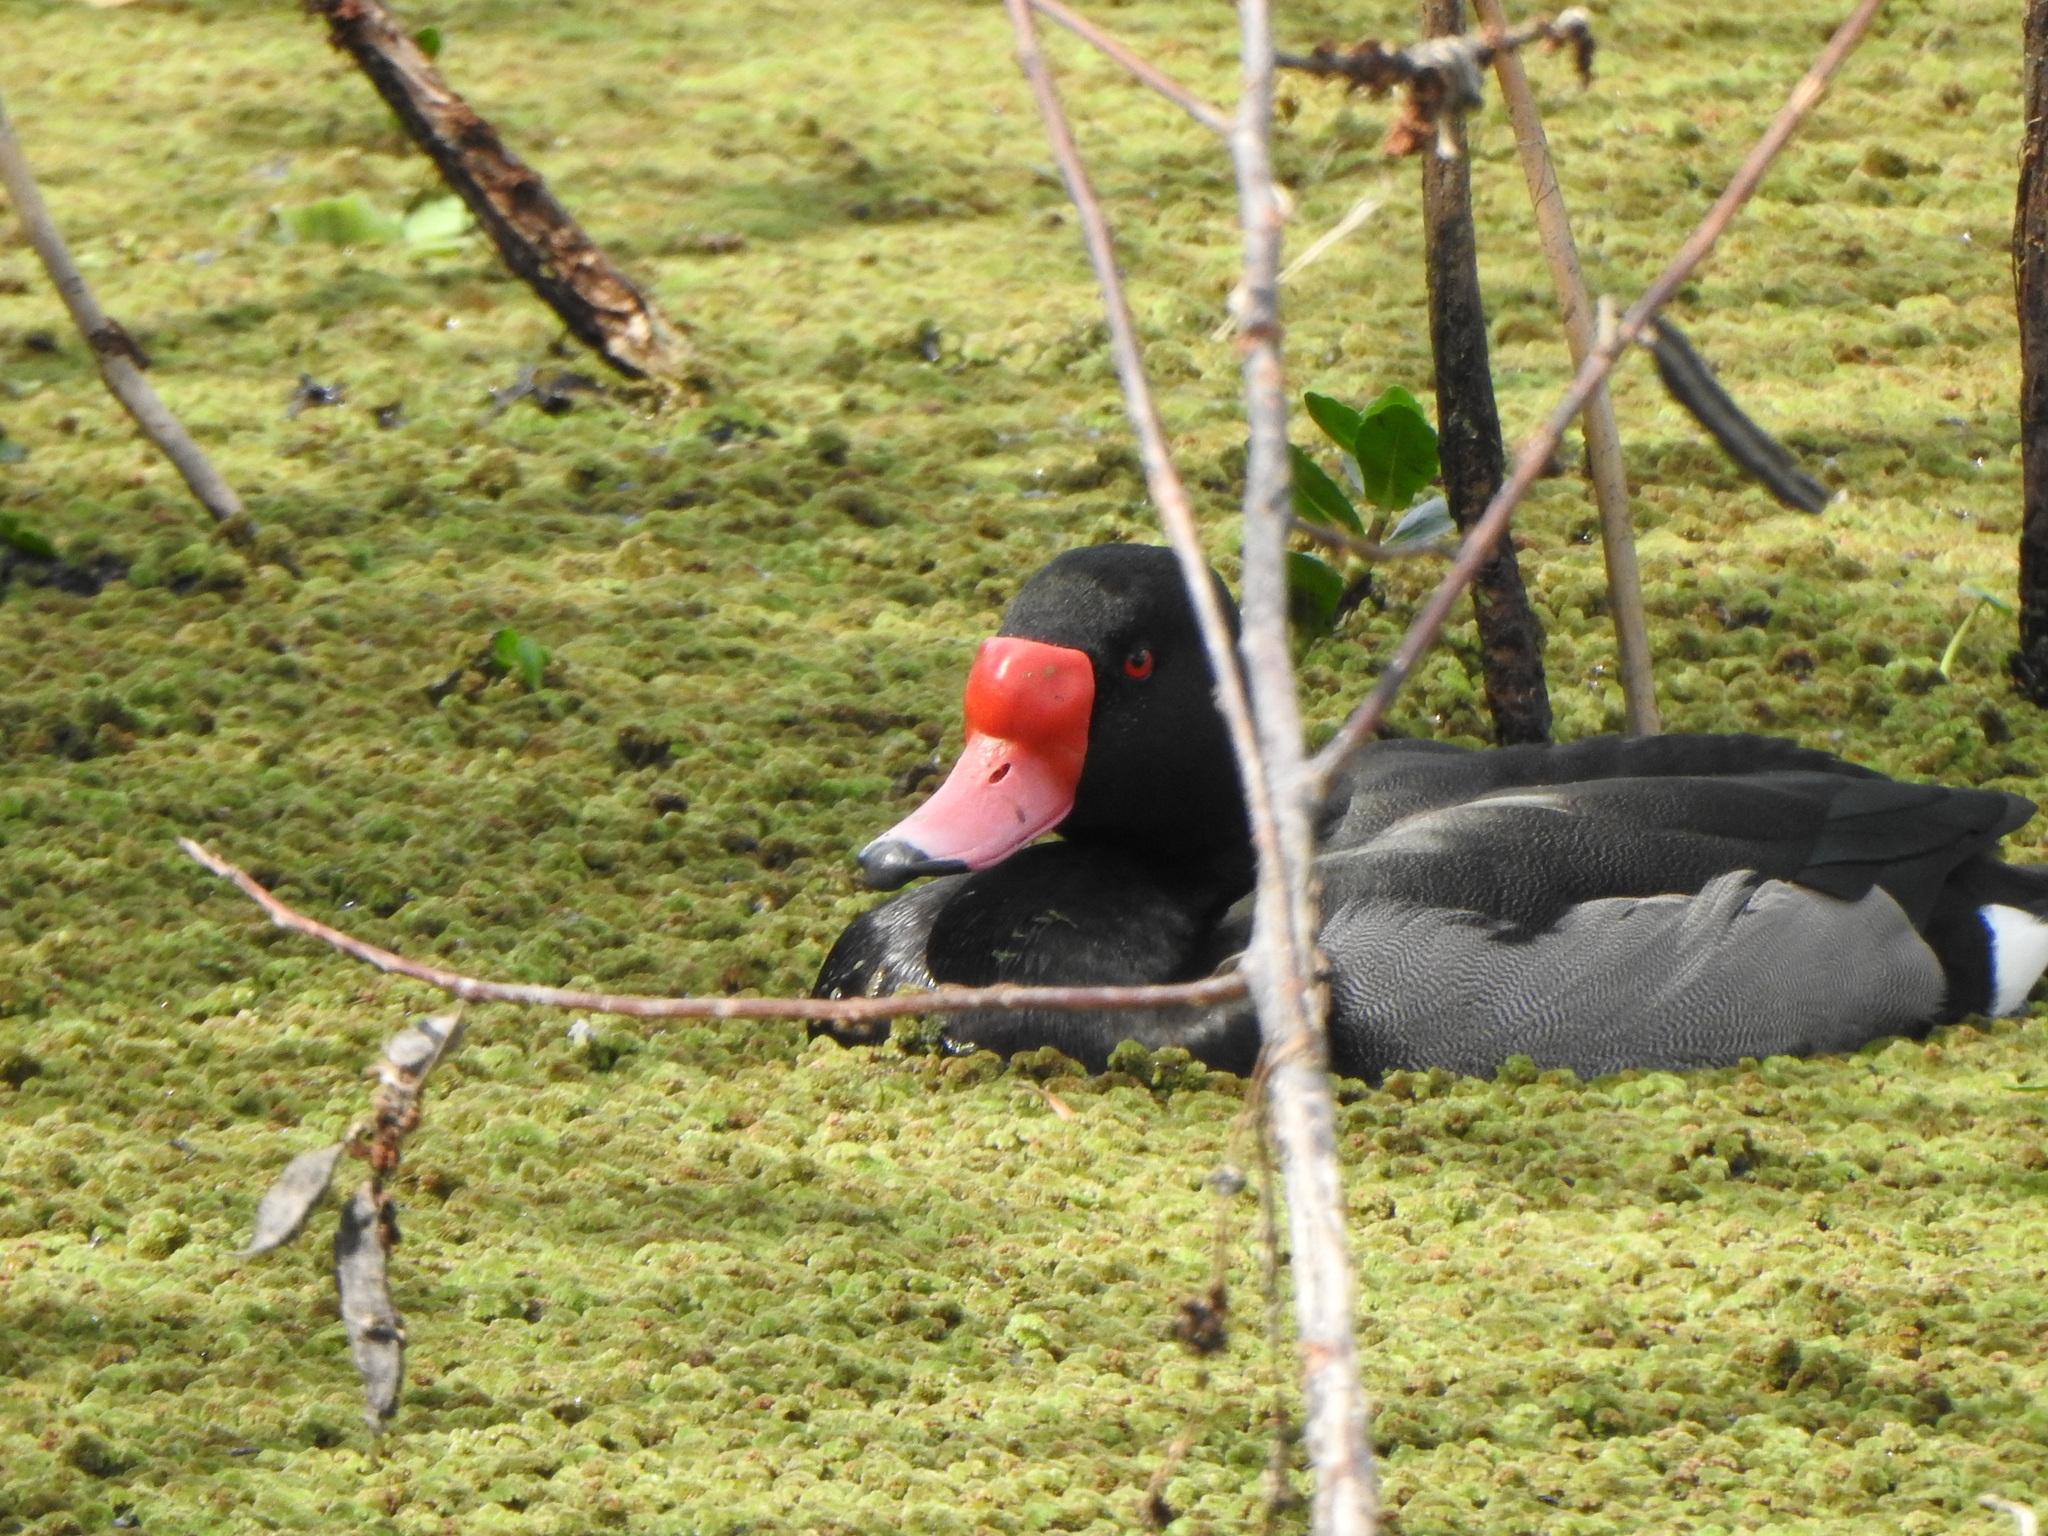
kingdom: Animalia
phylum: Chordata
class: Aves
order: Anseriformes
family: Anatidae
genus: Netta
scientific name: Netta peposaca
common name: Rosy-billed pochard
